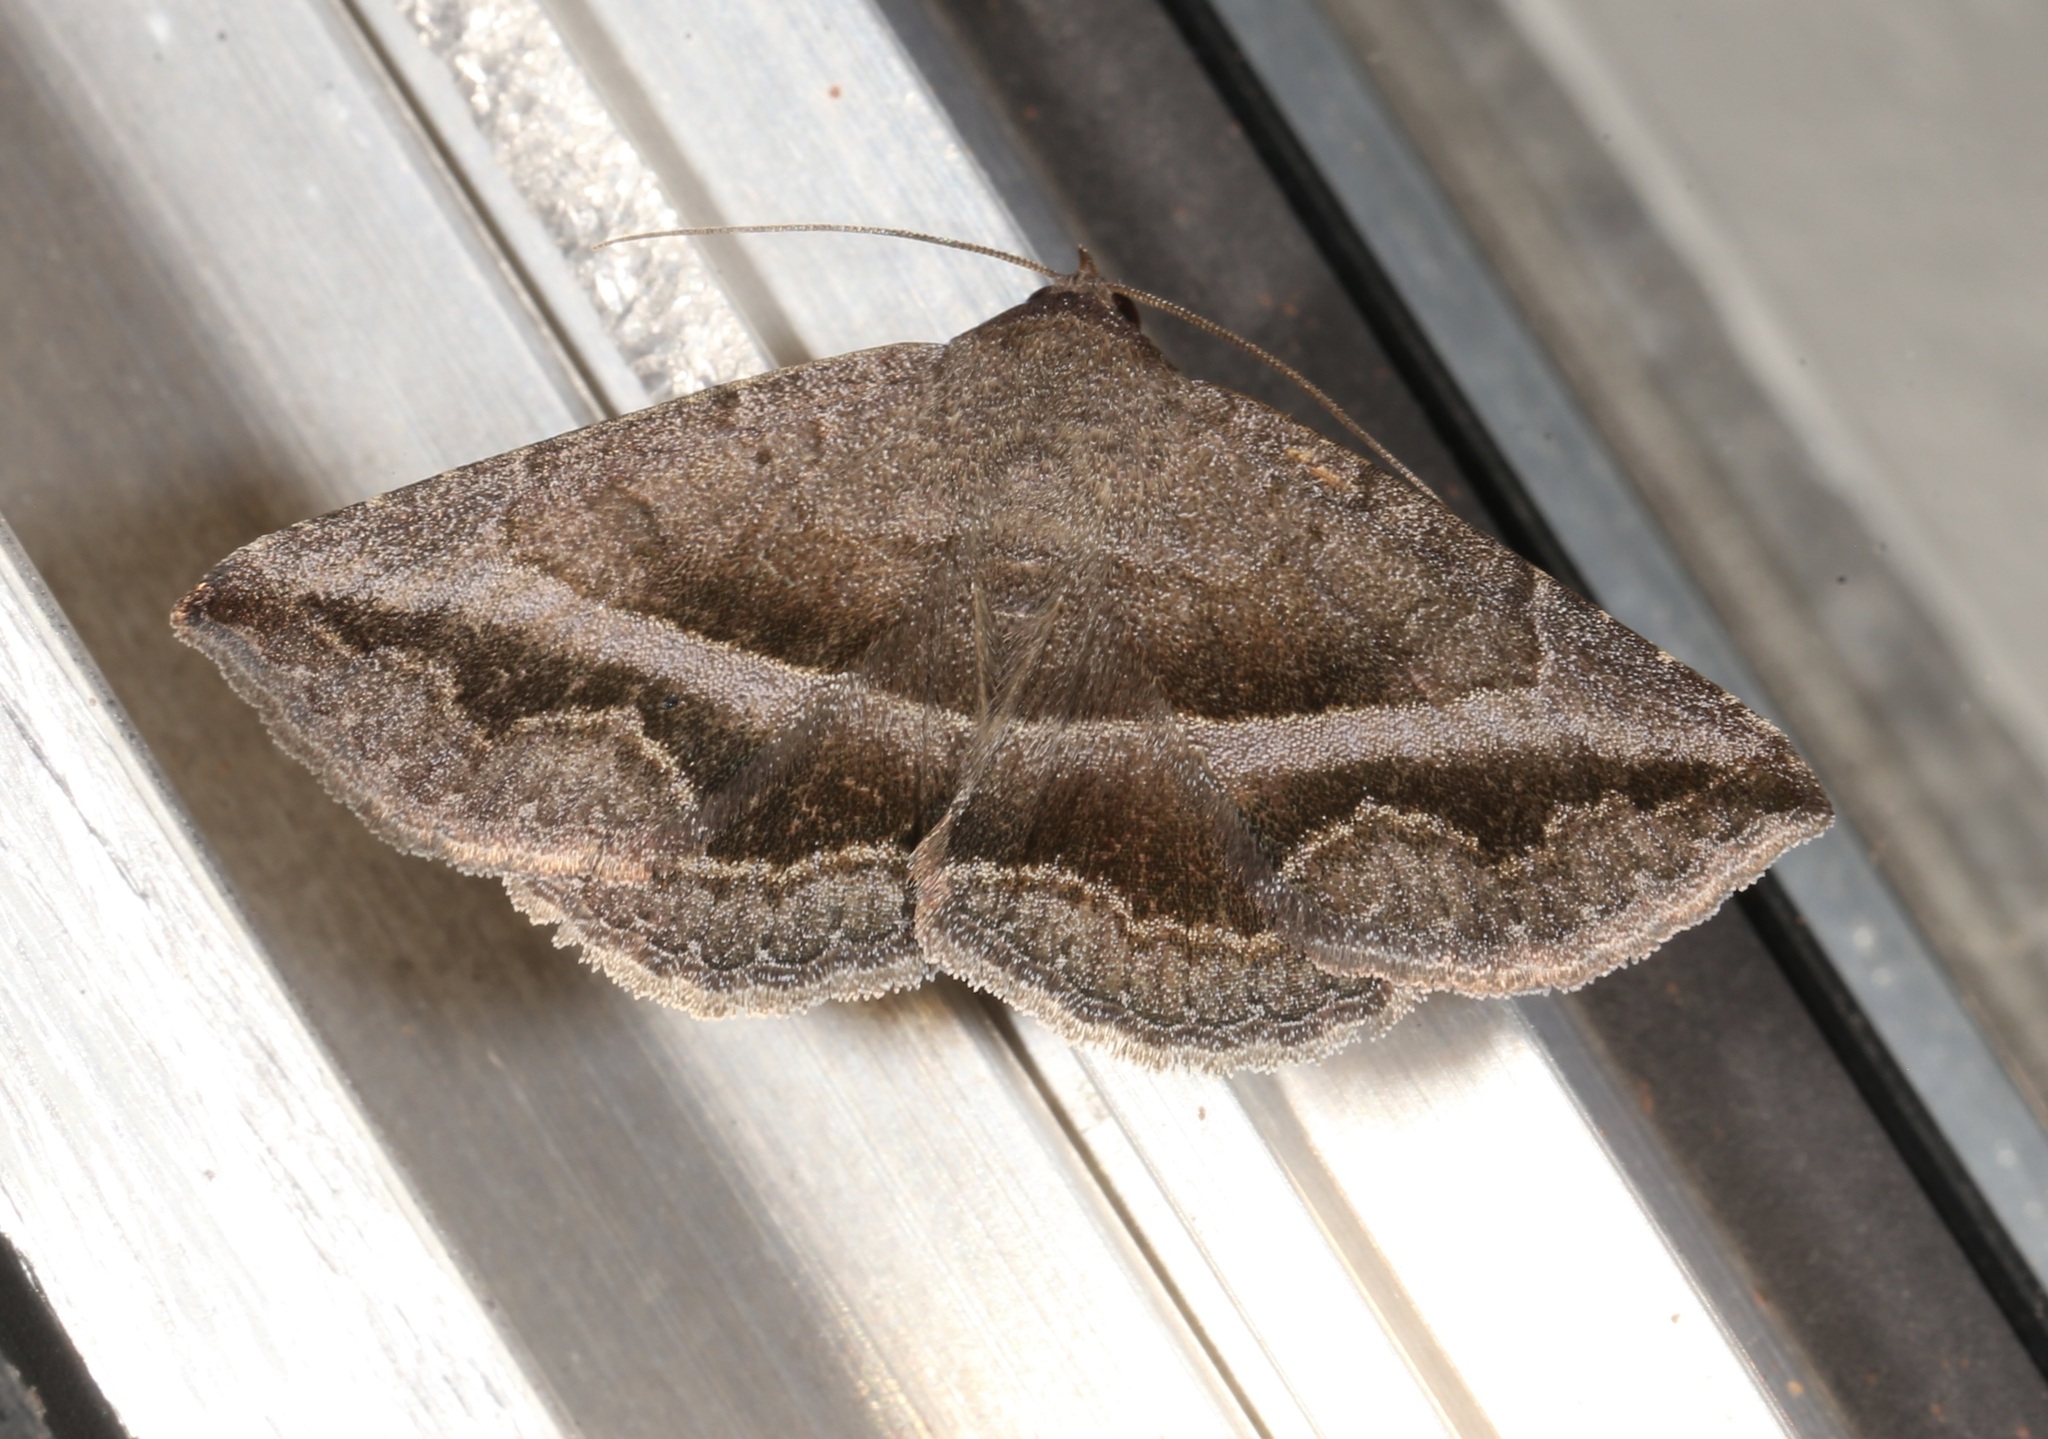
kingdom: Animalia
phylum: Arthropoda
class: Insecta
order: Lepidoptera
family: Erebidae
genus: Lesmone
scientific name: Lesmone griseipennis
